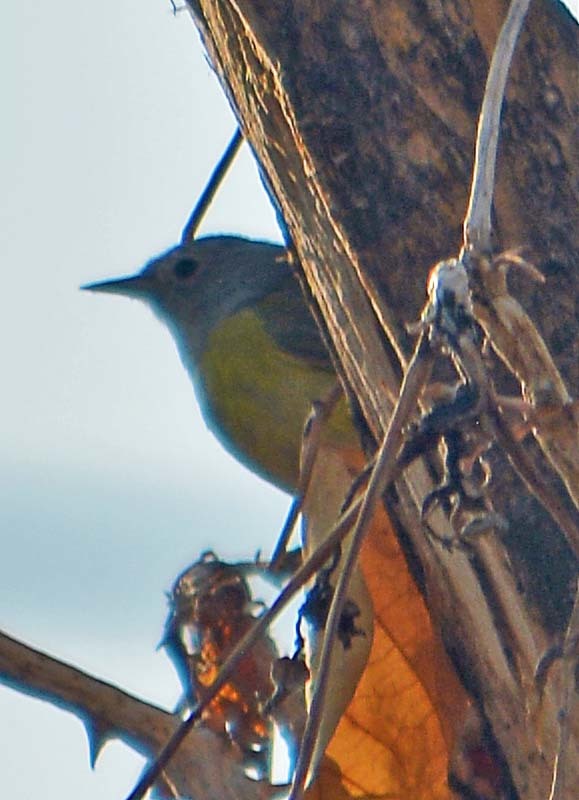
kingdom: Animalia
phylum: Chordata
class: Aves
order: Passeriformes
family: Parulidae
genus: Leiothlypis
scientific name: Leiothlypis ruficapilla
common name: Nashville warbler
